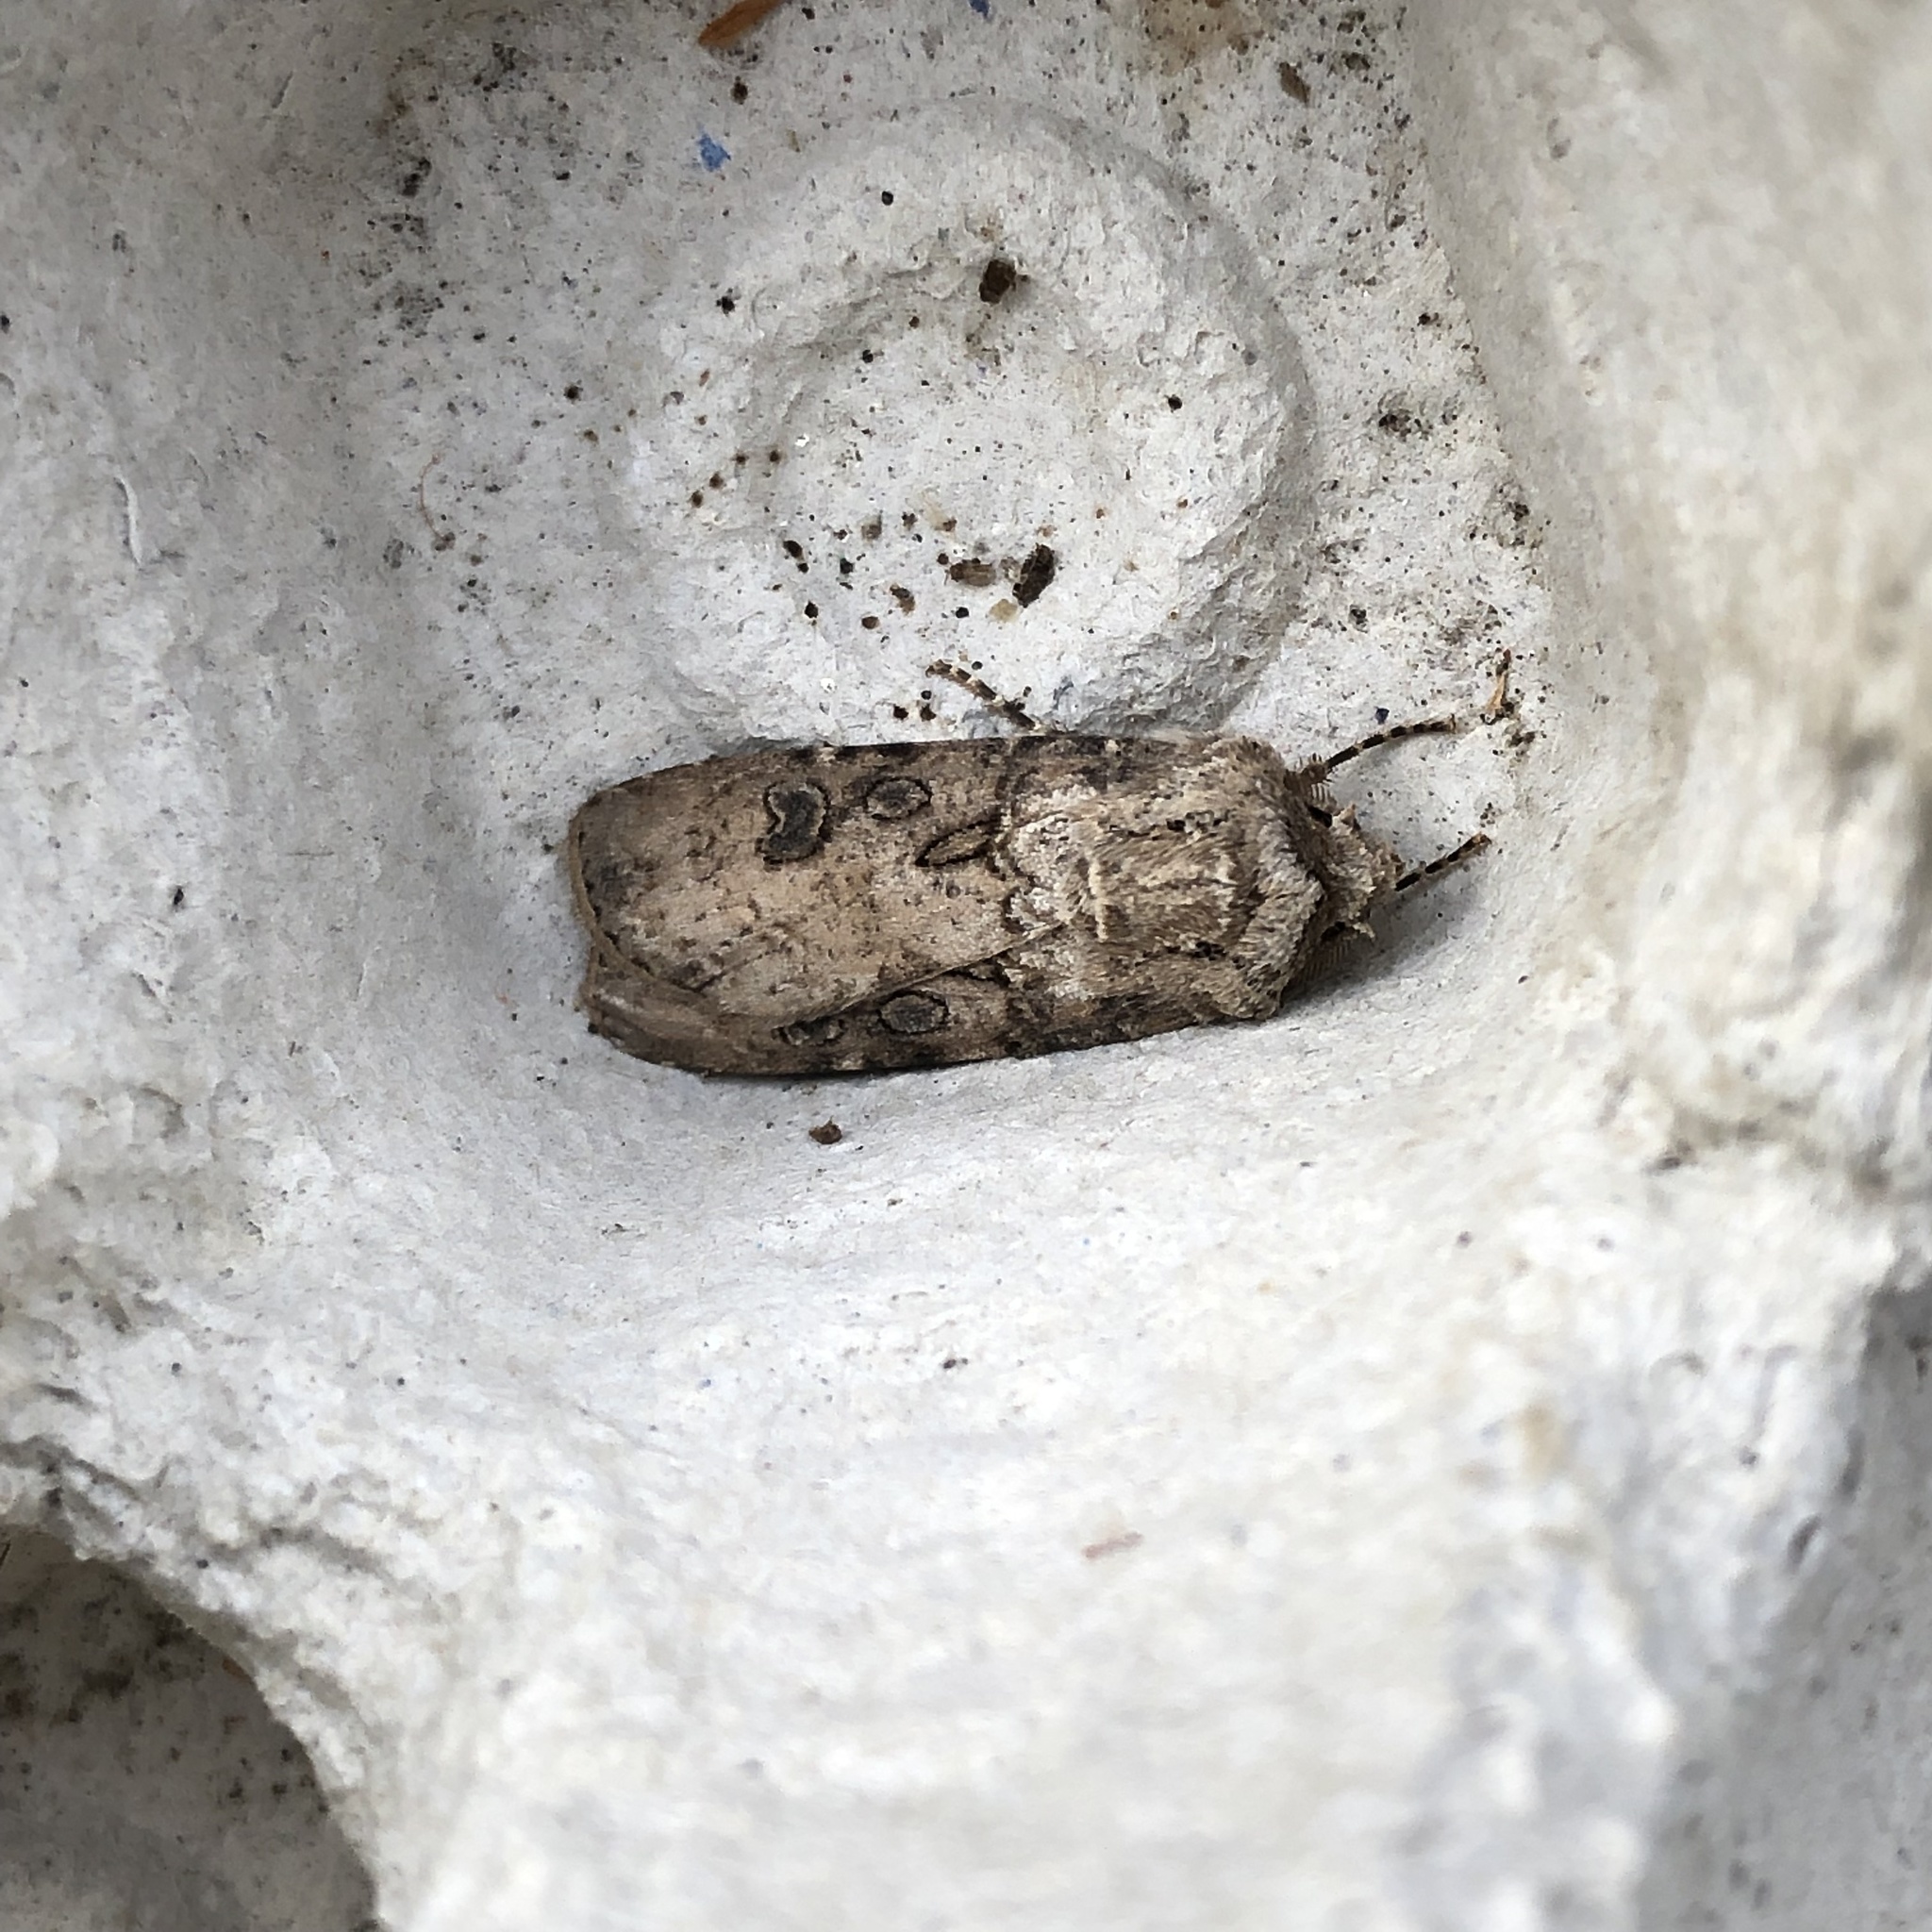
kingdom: Animalia
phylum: Arthropoda
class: Insecta
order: Lepidoptera
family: Noctuidae
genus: Agrotis
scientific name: Agrotis segetum
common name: Turnip moth
